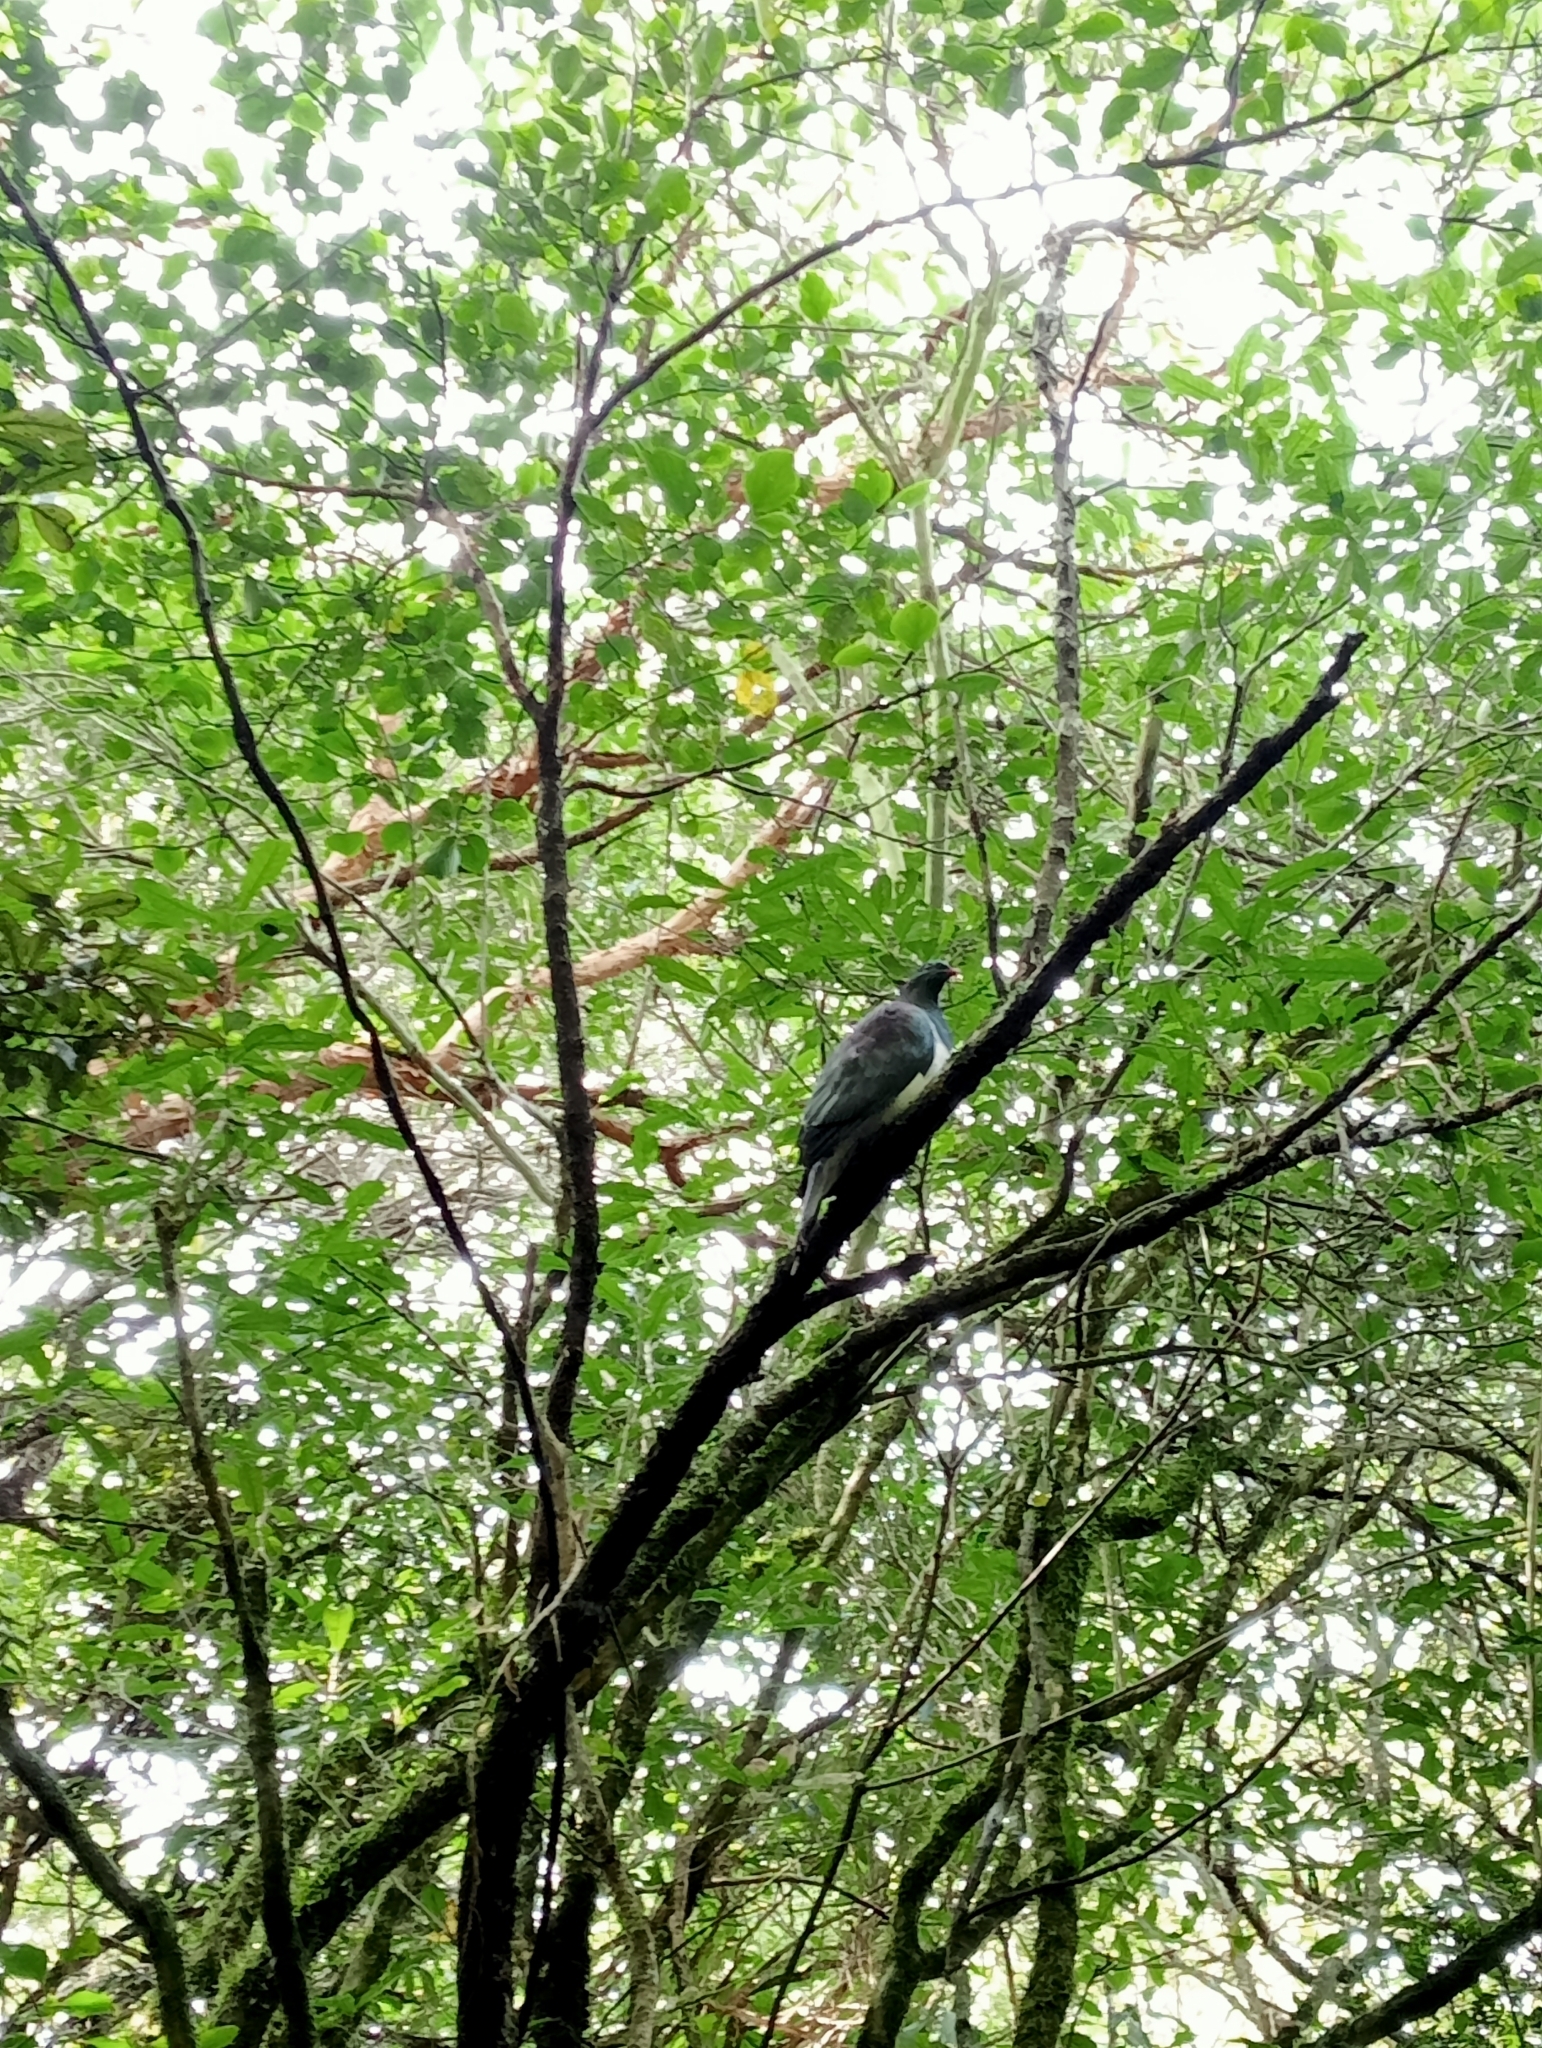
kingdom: Animalia
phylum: Chordata
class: Aves
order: Columbiformes
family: Columbidae
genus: Hemiphaga
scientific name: Hemiphaga novaeseelandiae
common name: New zealand pigeon
